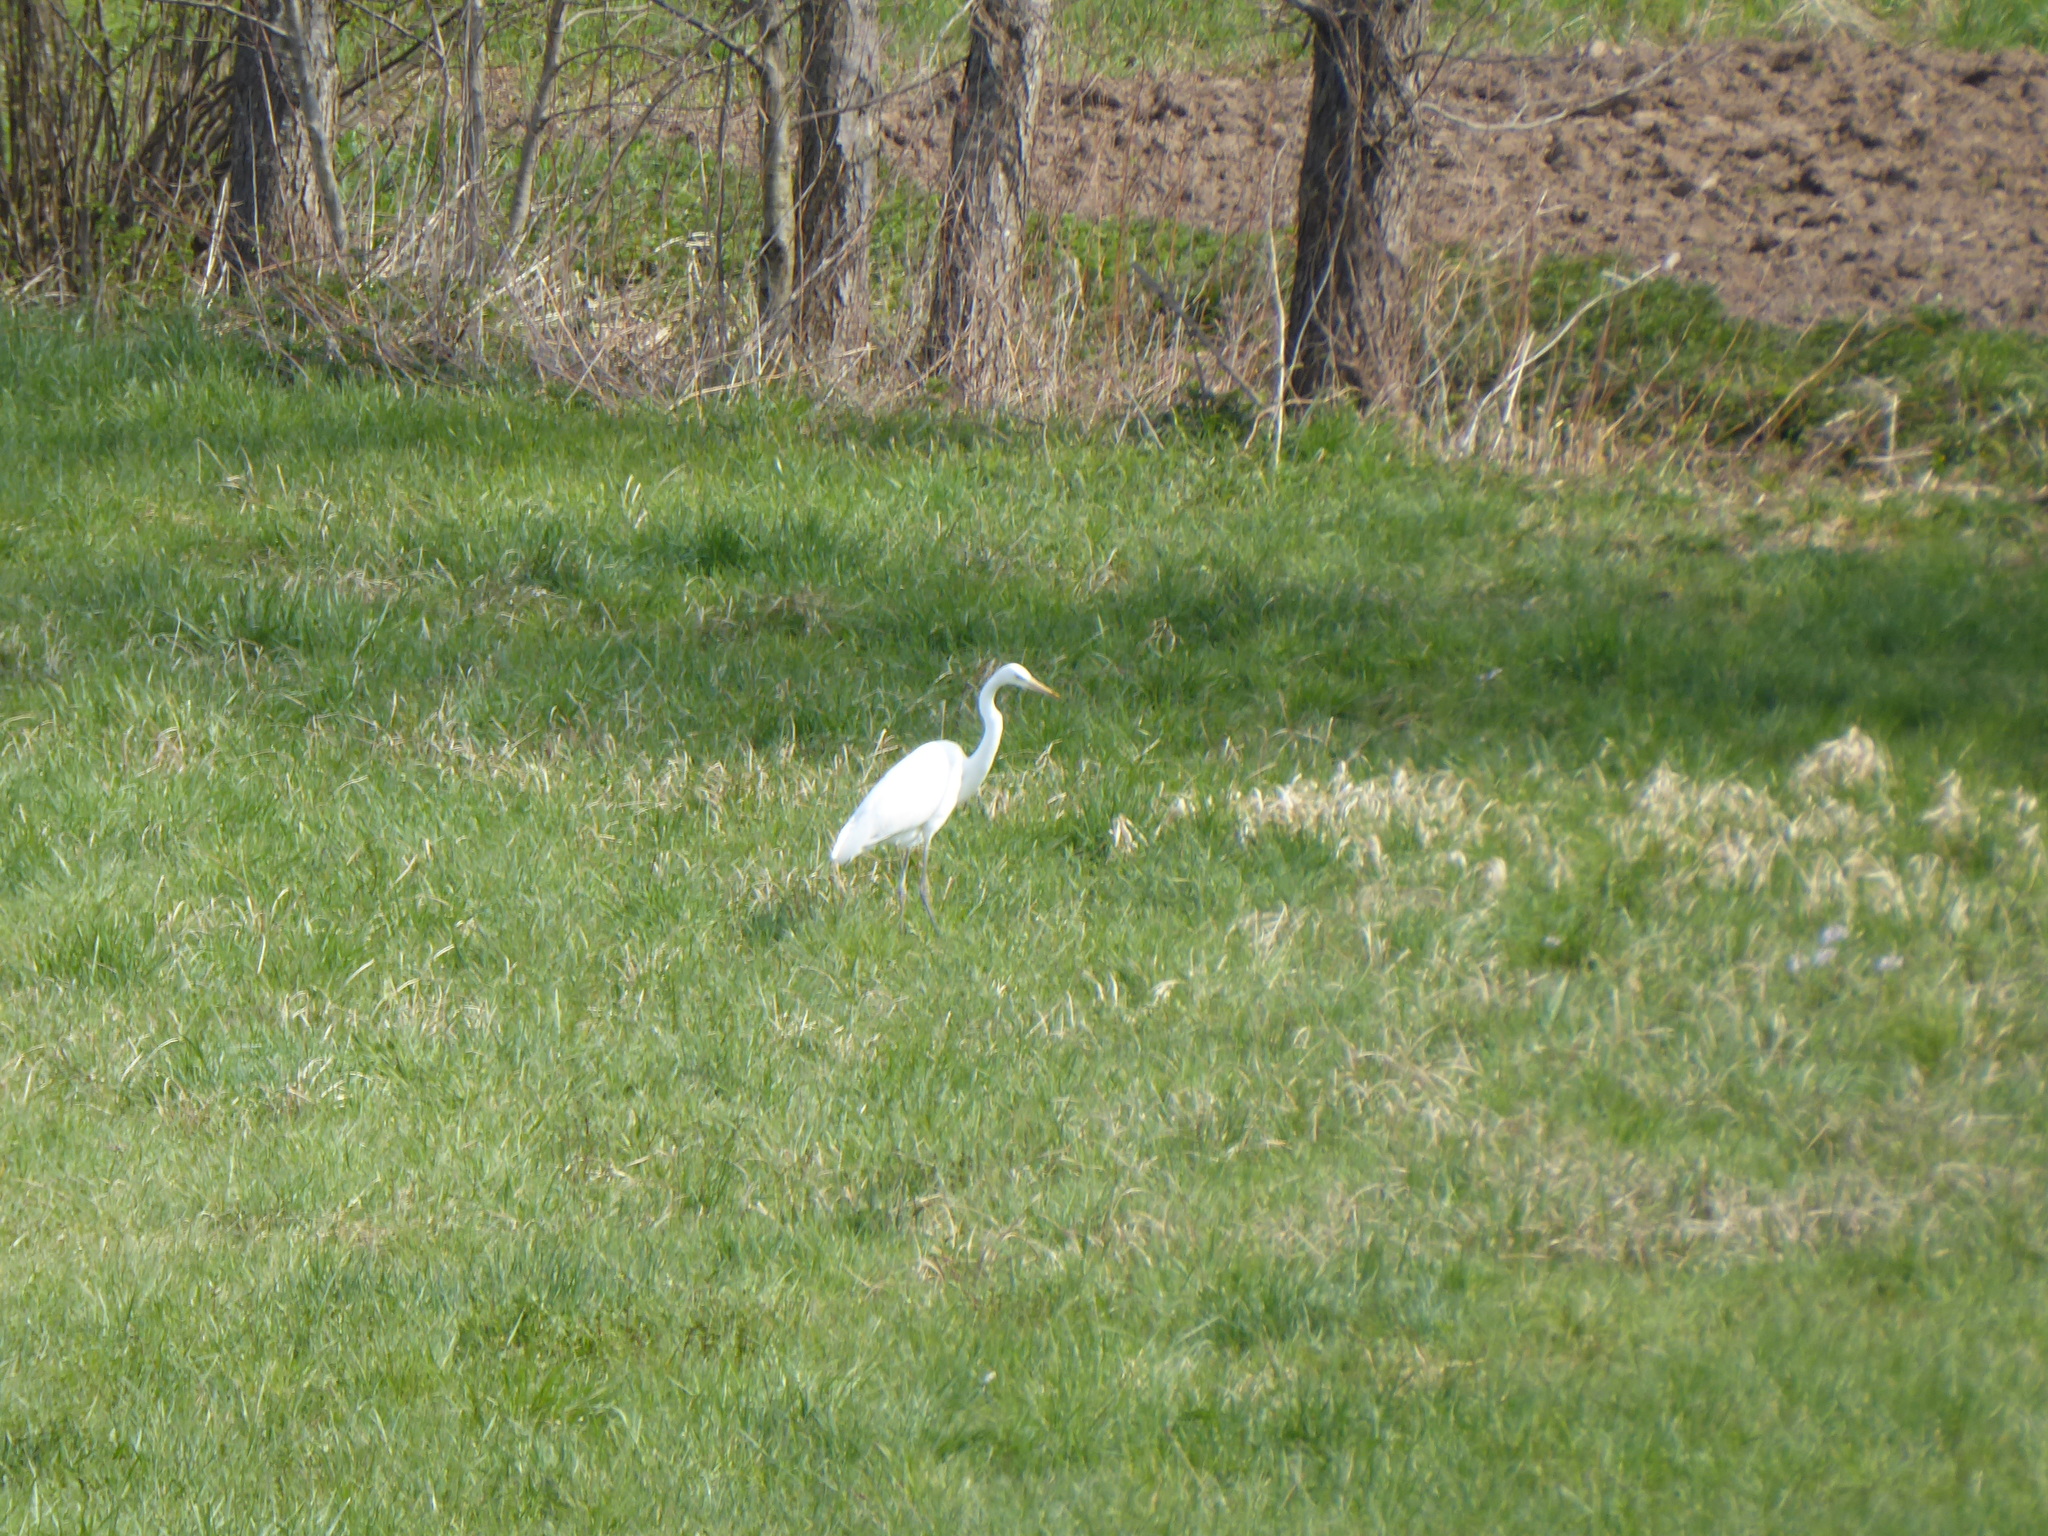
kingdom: Animalia
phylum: Chordata
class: Aves
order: Pelecaniformes
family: Ardeidae
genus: Ardea
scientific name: Ardea alba
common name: Great egret
